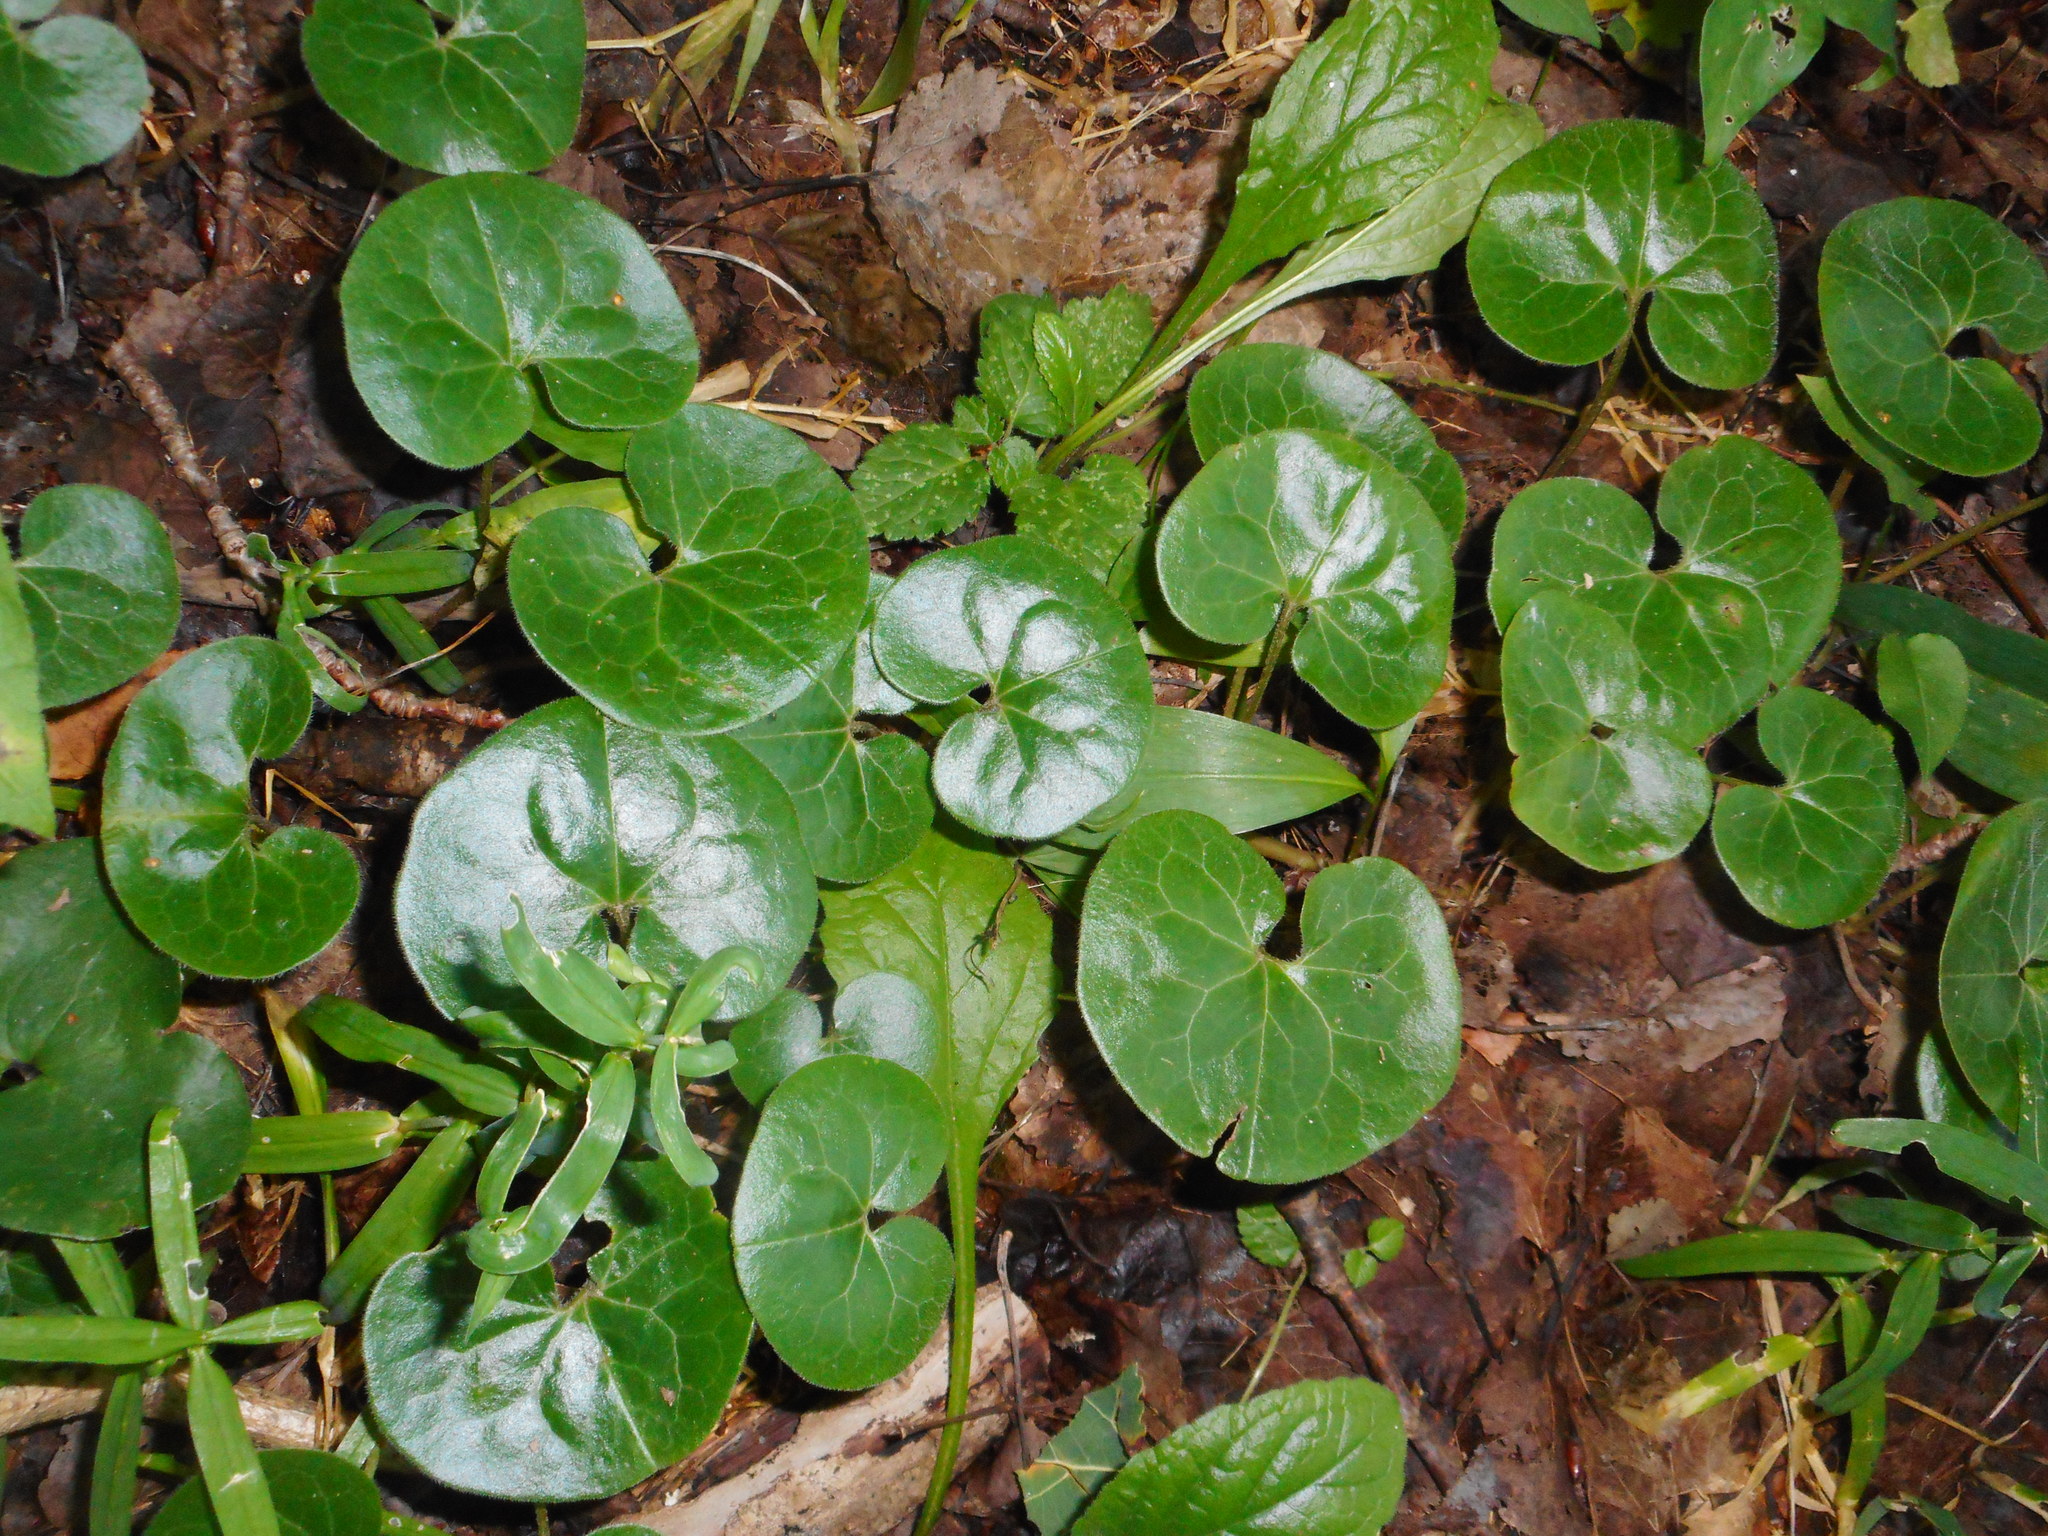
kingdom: Plantae
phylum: Tracheophyta
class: Magnoliopsida
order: Piperales
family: Aristolochiaceae
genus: Asarum
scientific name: Asarum europaeum
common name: Asarabacca
